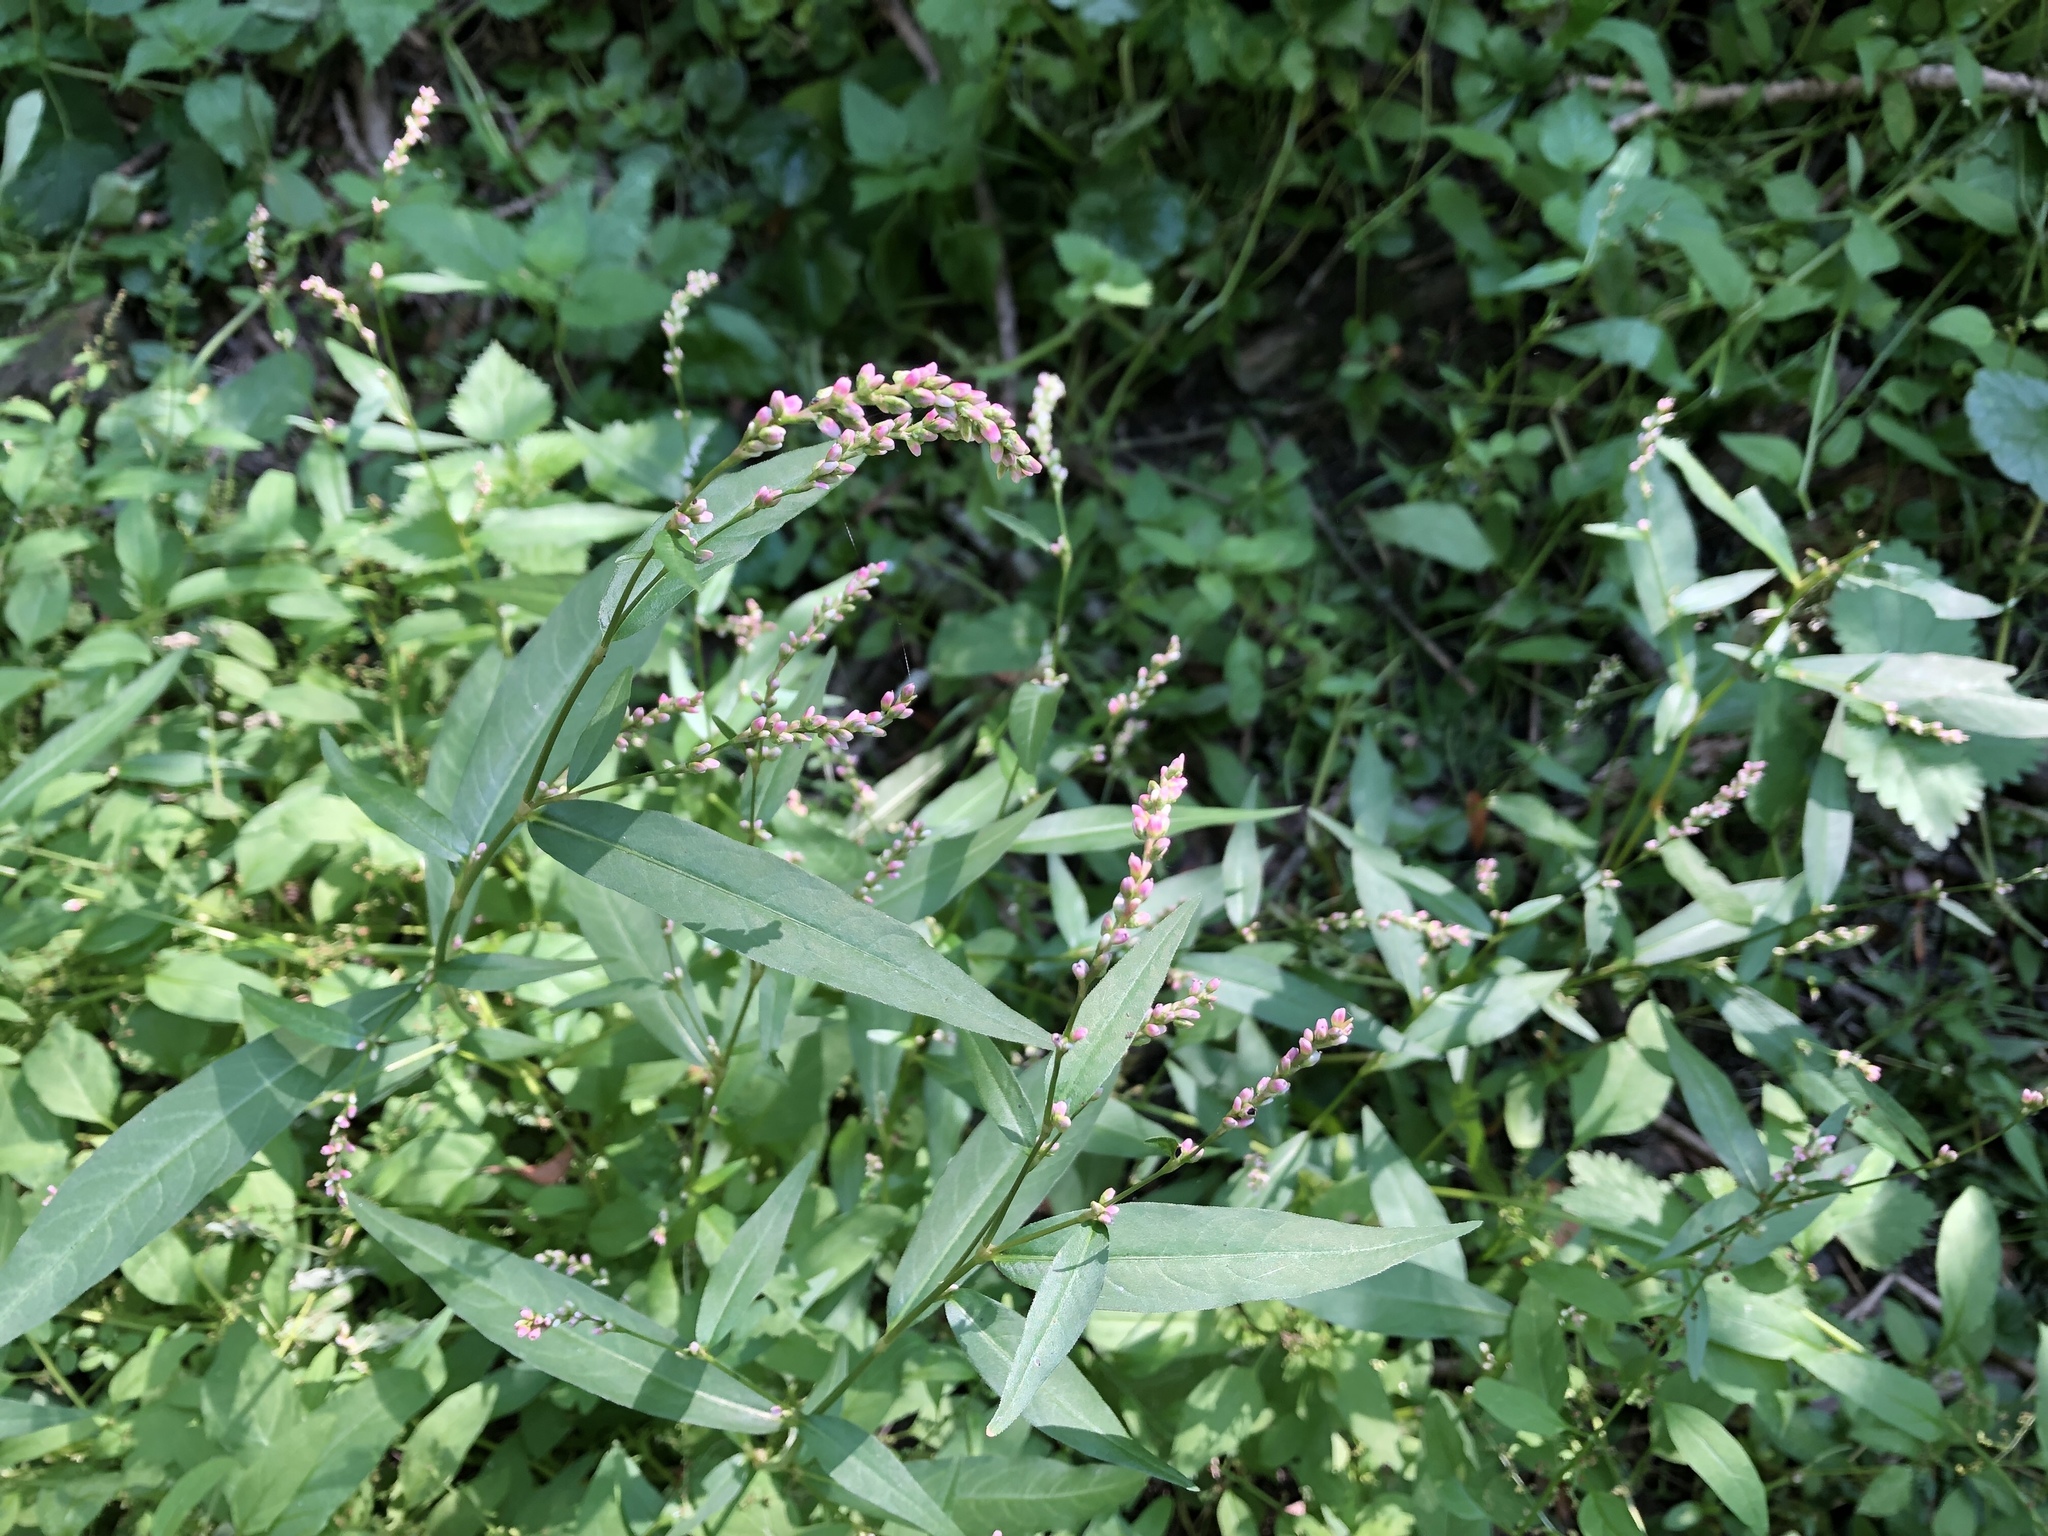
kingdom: Plantae
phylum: Tracheophyta
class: Magnoliopsida
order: Caryophyllales
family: Polygonaceae
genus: Persicaria
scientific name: Persicaria minor
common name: Small water-pepper
